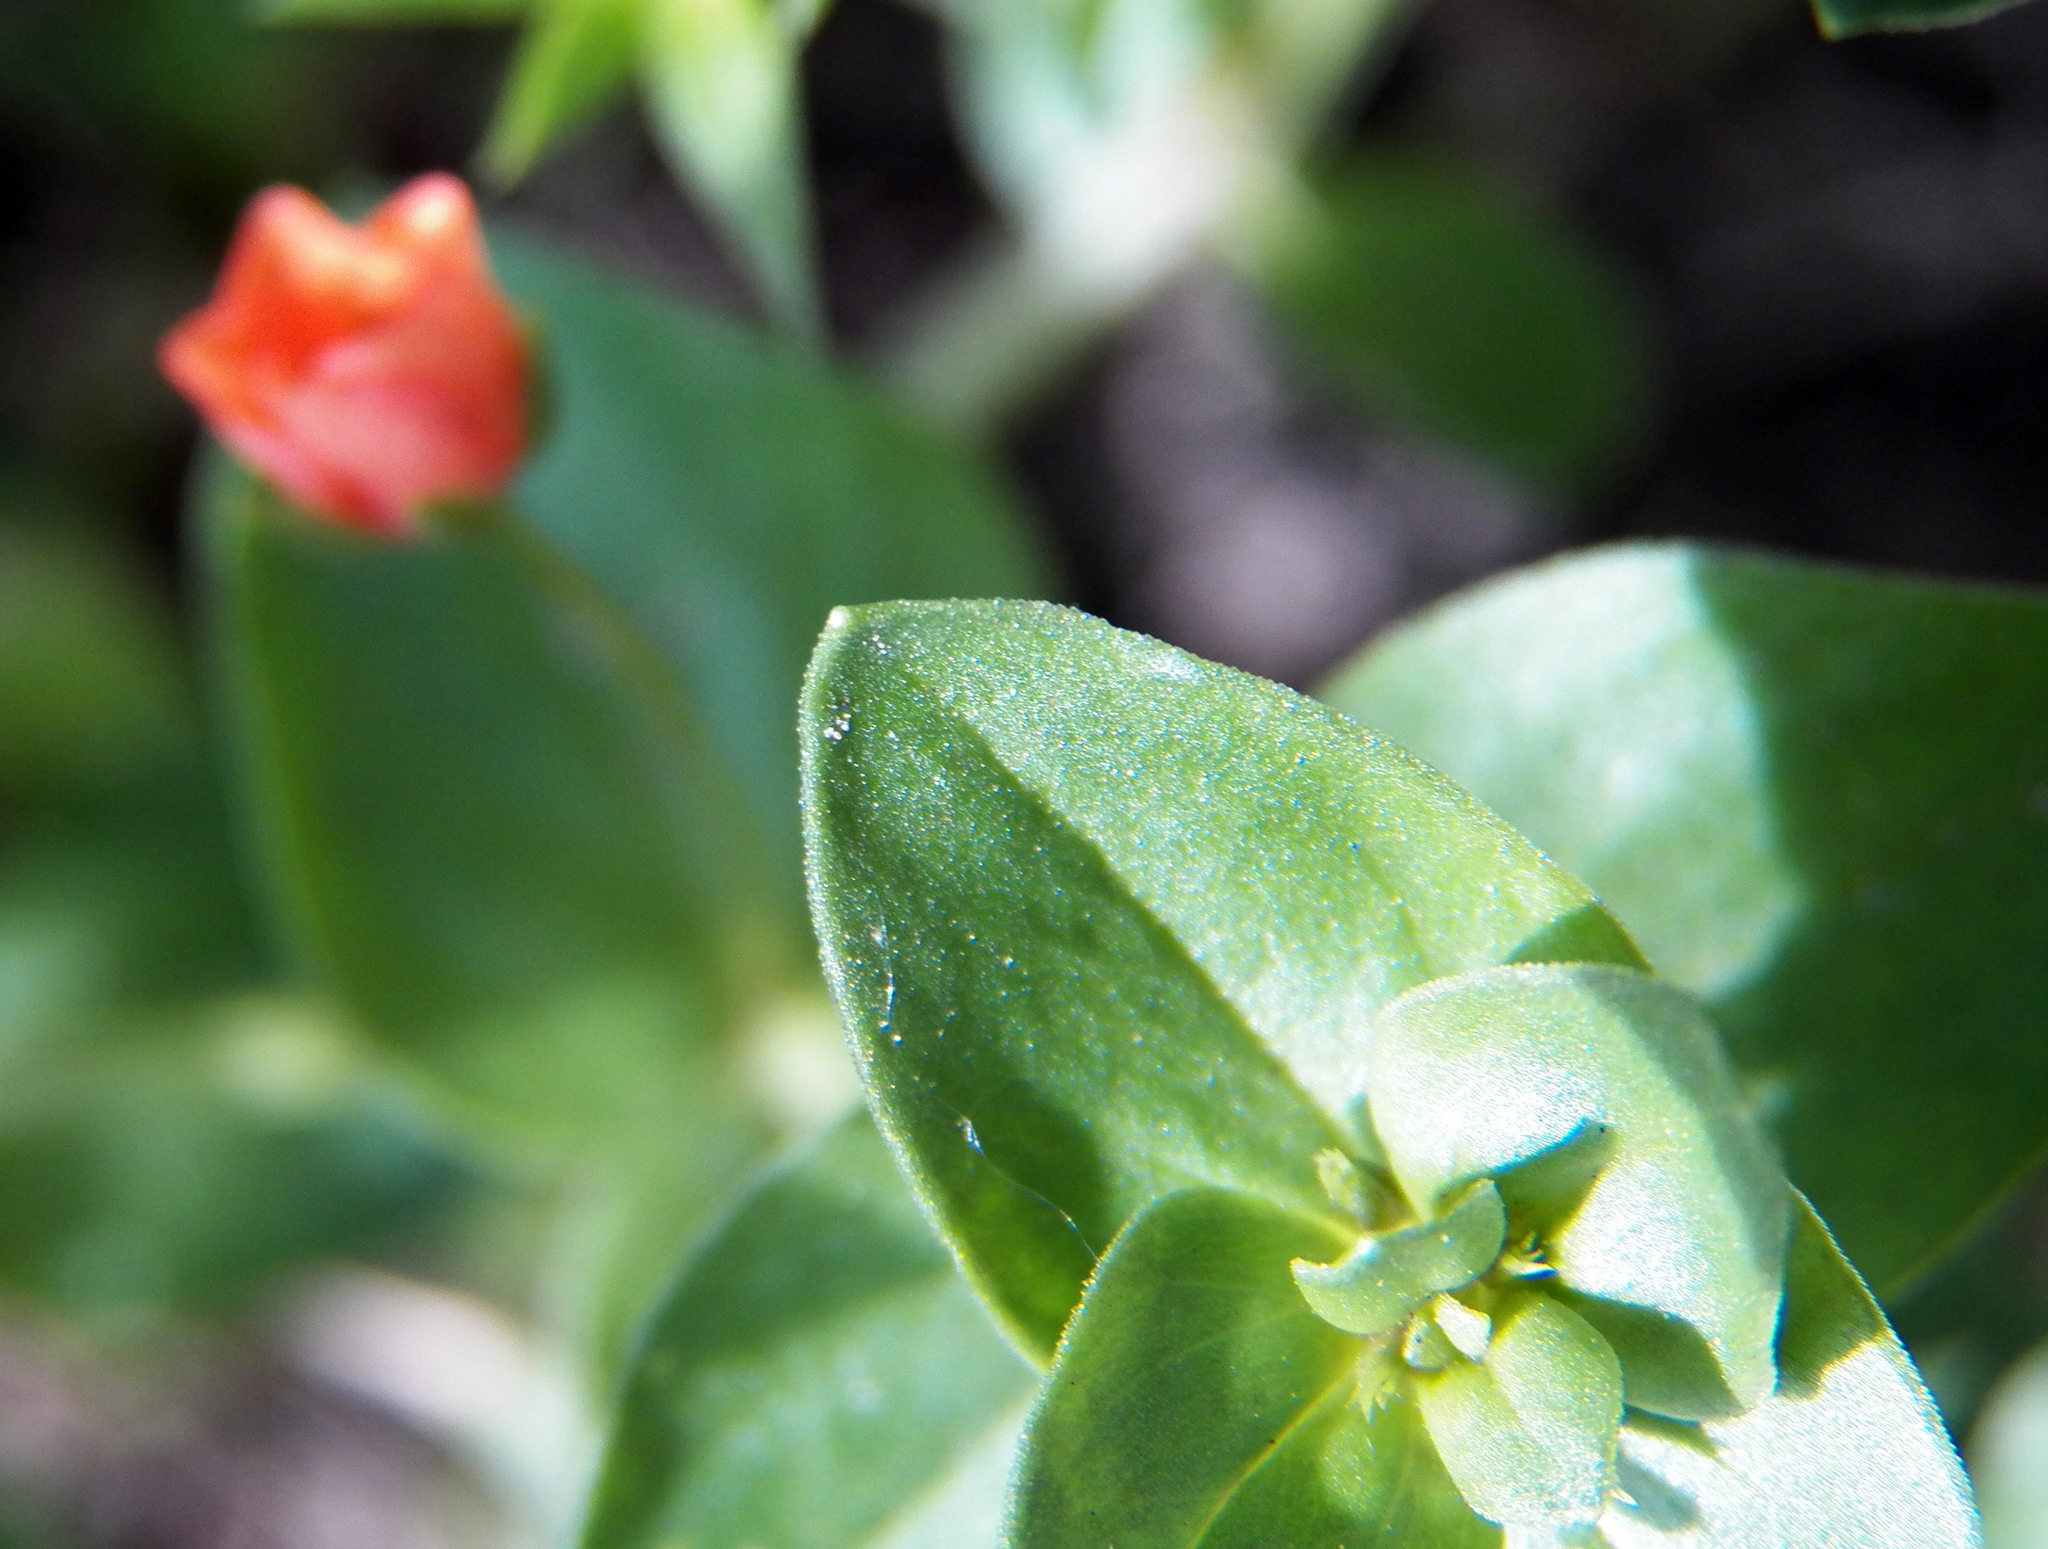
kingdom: Plantae
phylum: Tracheophyta
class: Magnoliopsida
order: Ericales
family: Primulaceae
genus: Lysimachia
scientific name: Lysimachia arvensis
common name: Scarlet pimpernel
